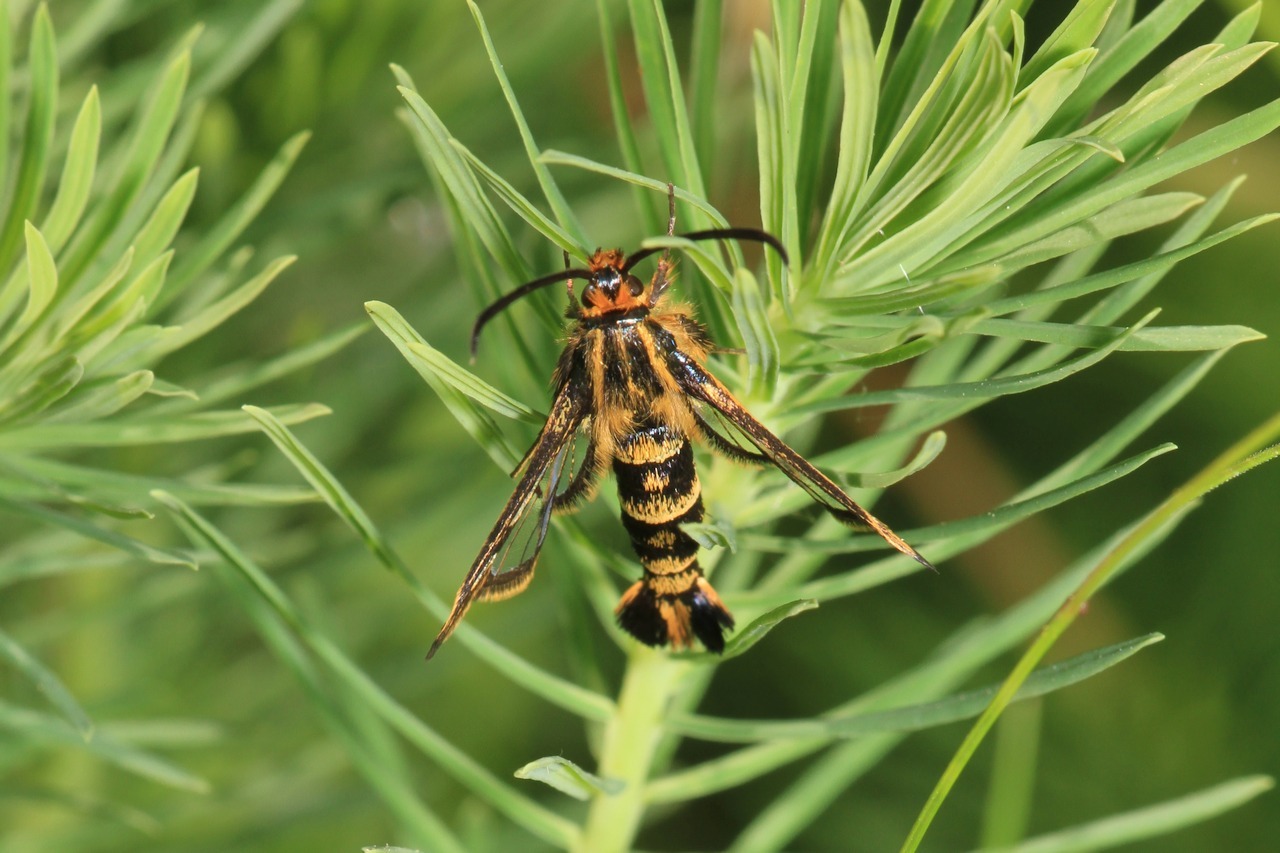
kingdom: Animalia
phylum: Arthropoda
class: Insecta
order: Lepidoptera
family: Sesiidae
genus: Chamaesphecia
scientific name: Chamaesphecia empiformis
